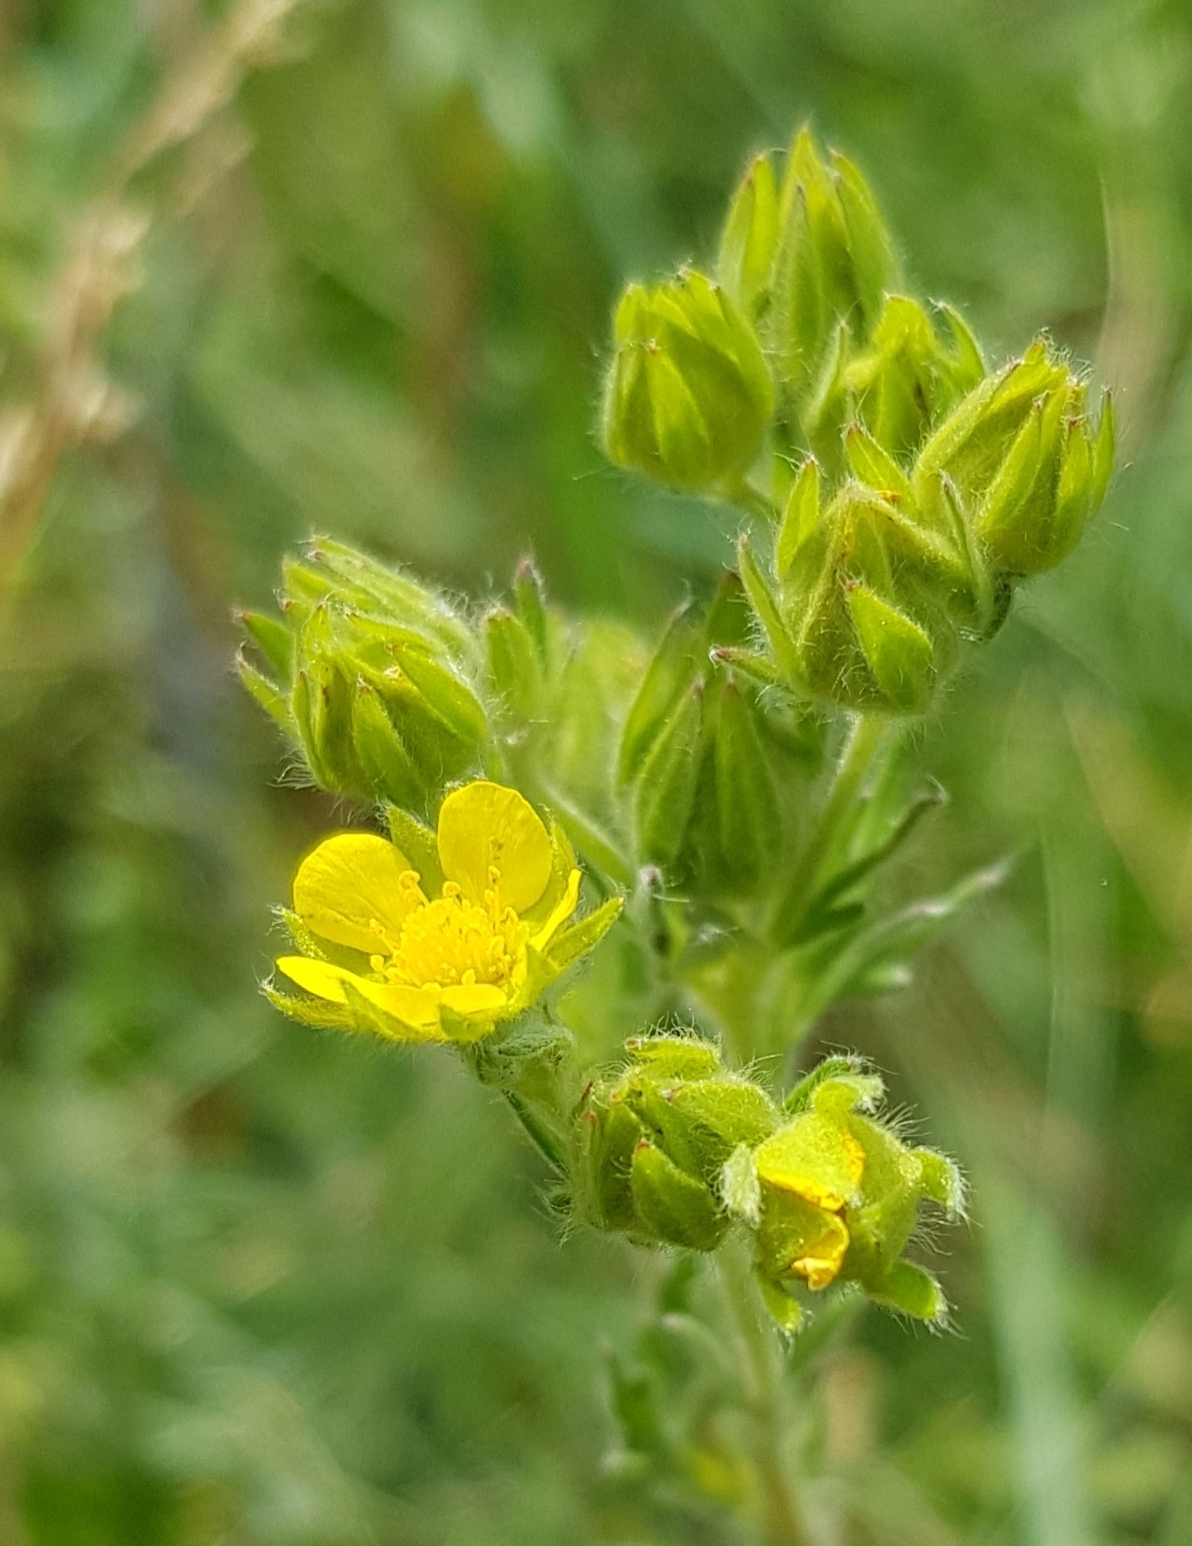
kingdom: Plantae
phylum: Tracheophyta
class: Magnoliopsida
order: Rosales
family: Rosaceae
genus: Potentilla
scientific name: Potentilla norvegica
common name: Ternate-leaved cinquefoil
